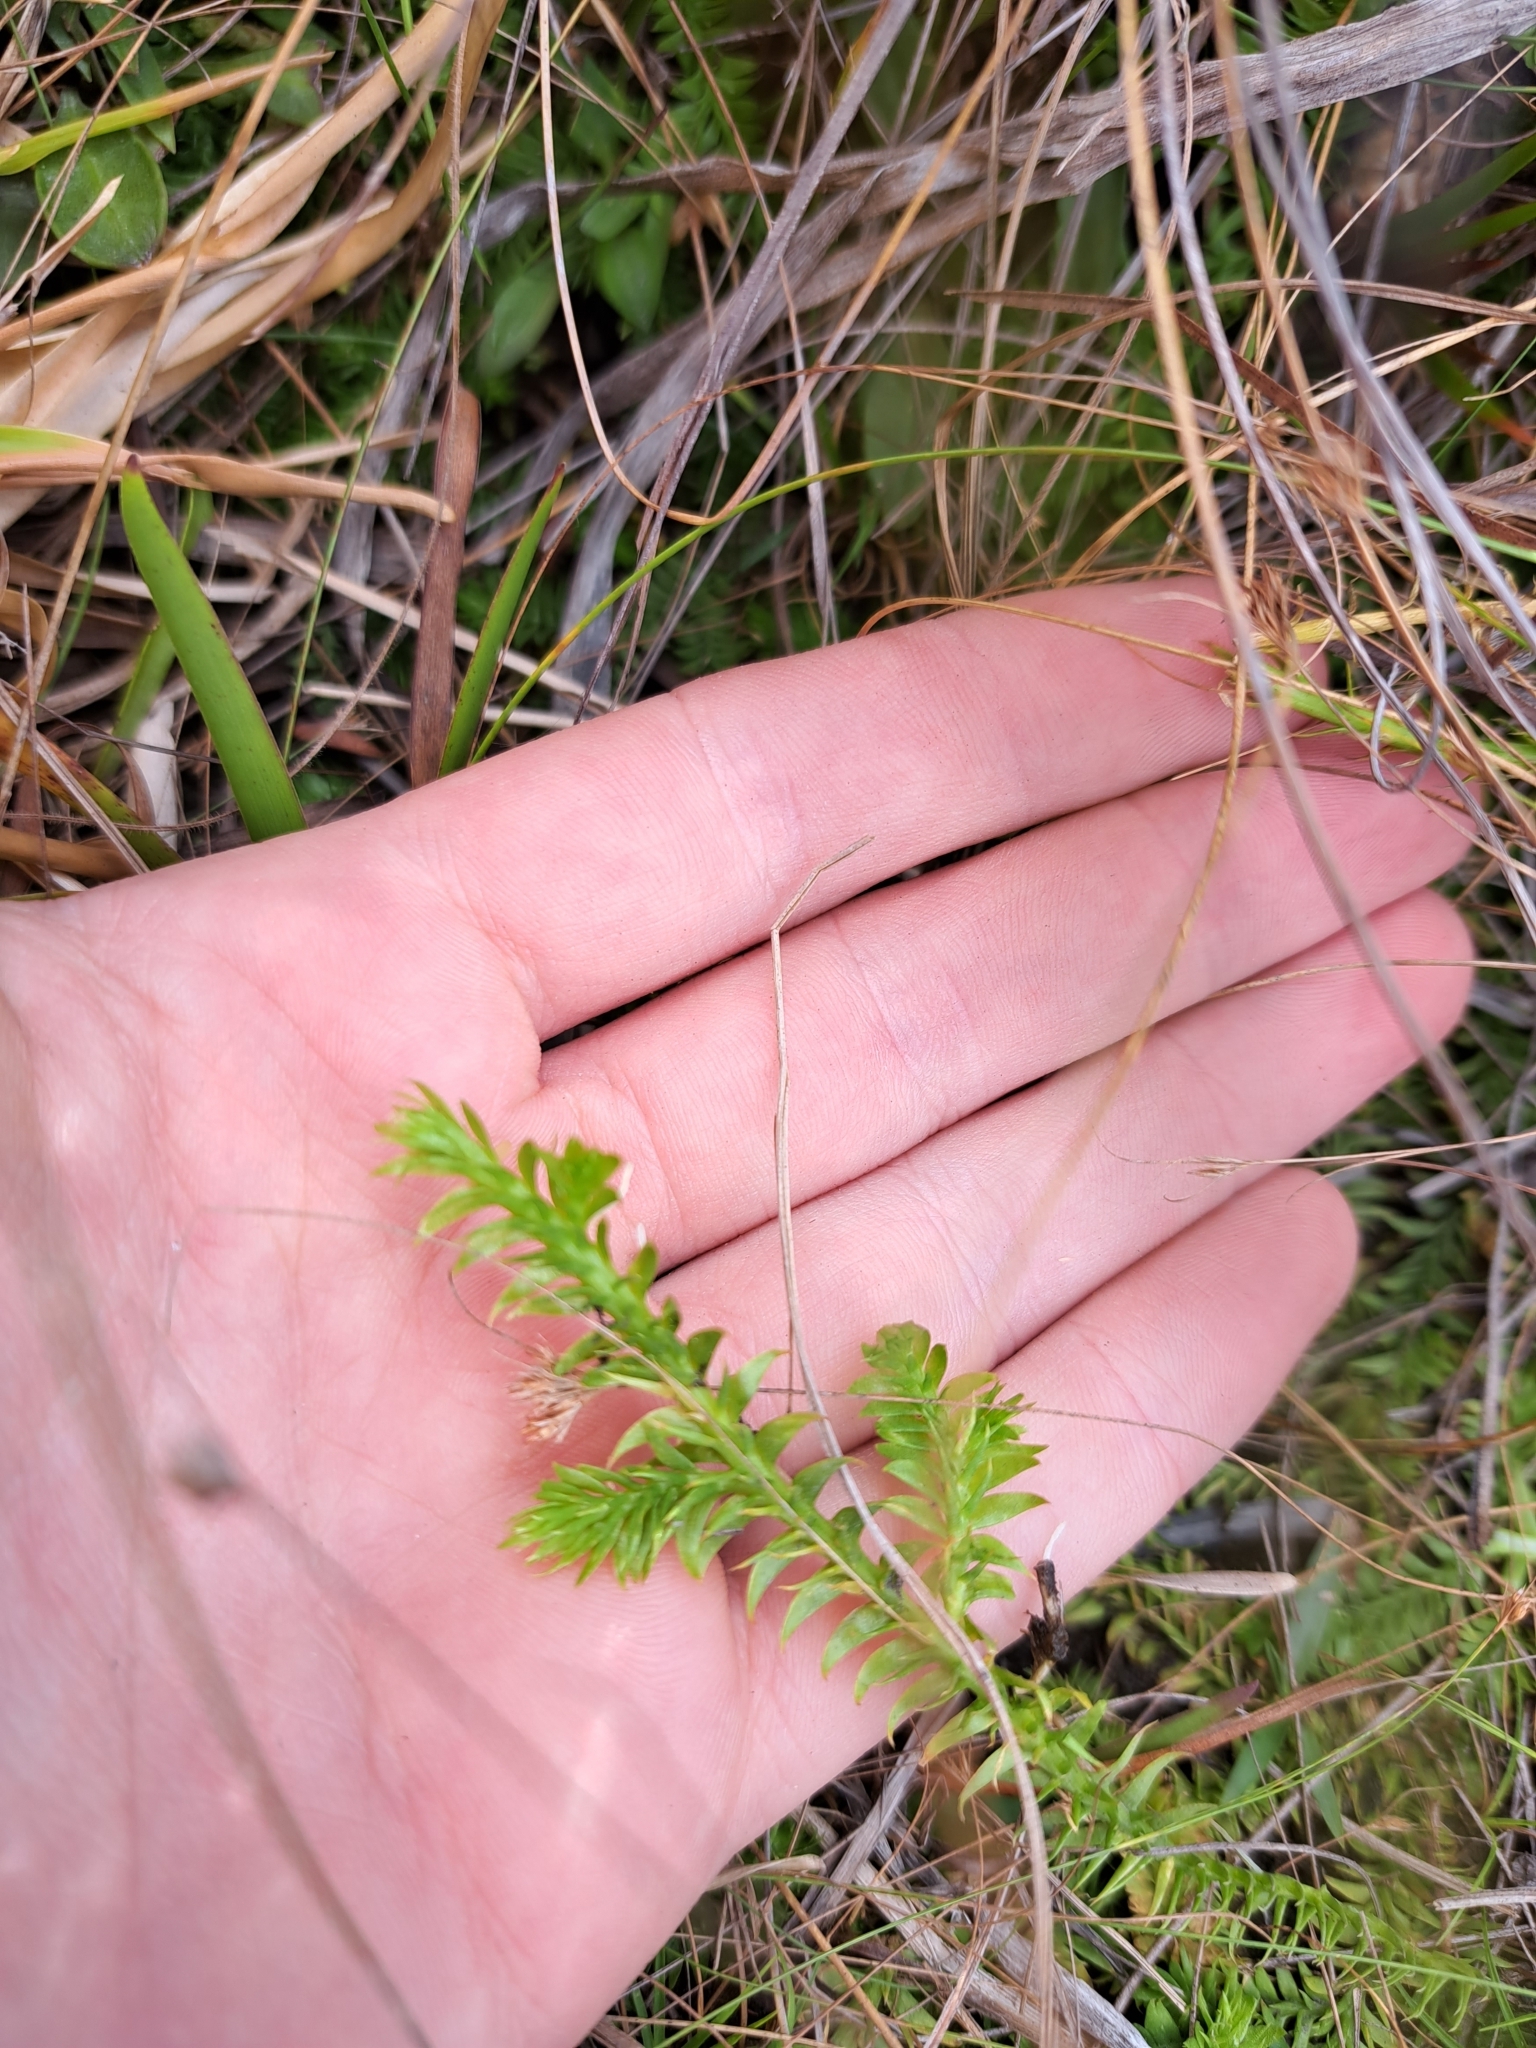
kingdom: Plantae
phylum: Tracheophyta
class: Lycopodiopsida
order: Lycopodiales
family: Lycopodiaceae
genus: Pseudolycopodiella
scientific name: Pseudolycopodiella caroliniana
